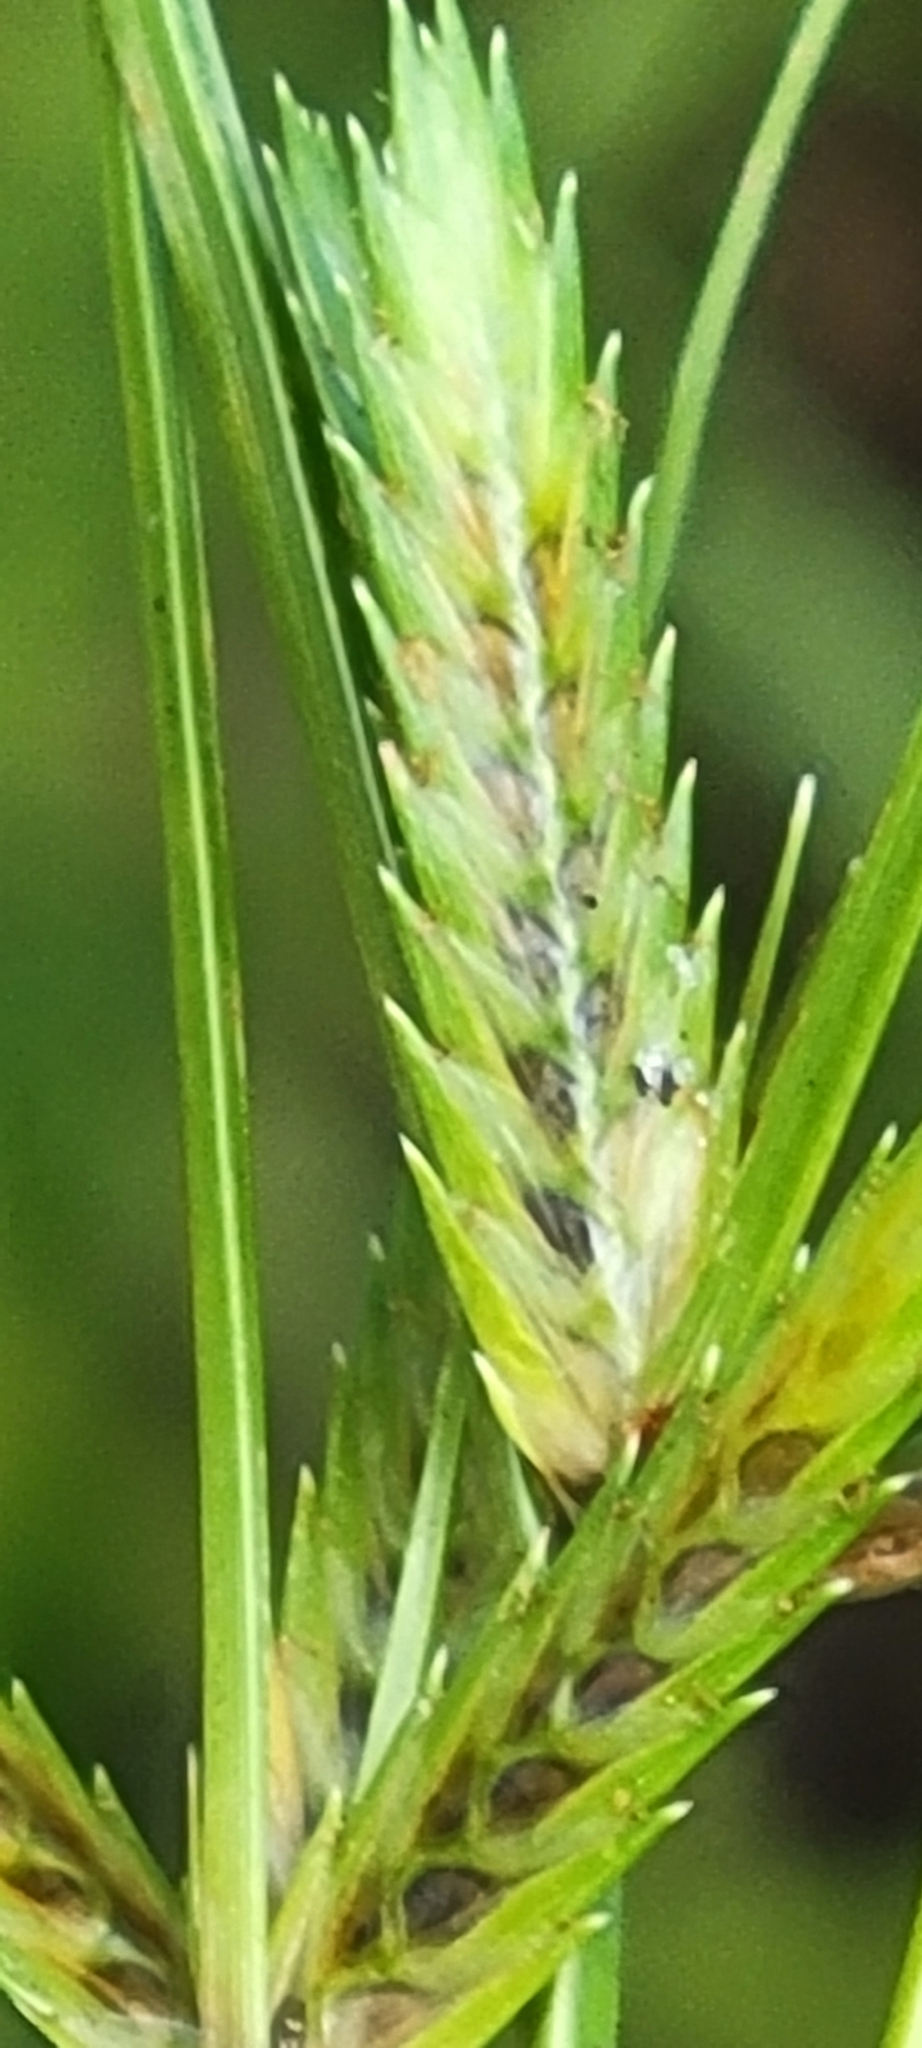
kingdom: Plantae
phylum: Tracheophyta
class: Liliopsida
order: Poales
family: Cyperaceae
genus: Cyperus
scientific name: Cyperus compressus
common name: Poorland flatsedge
